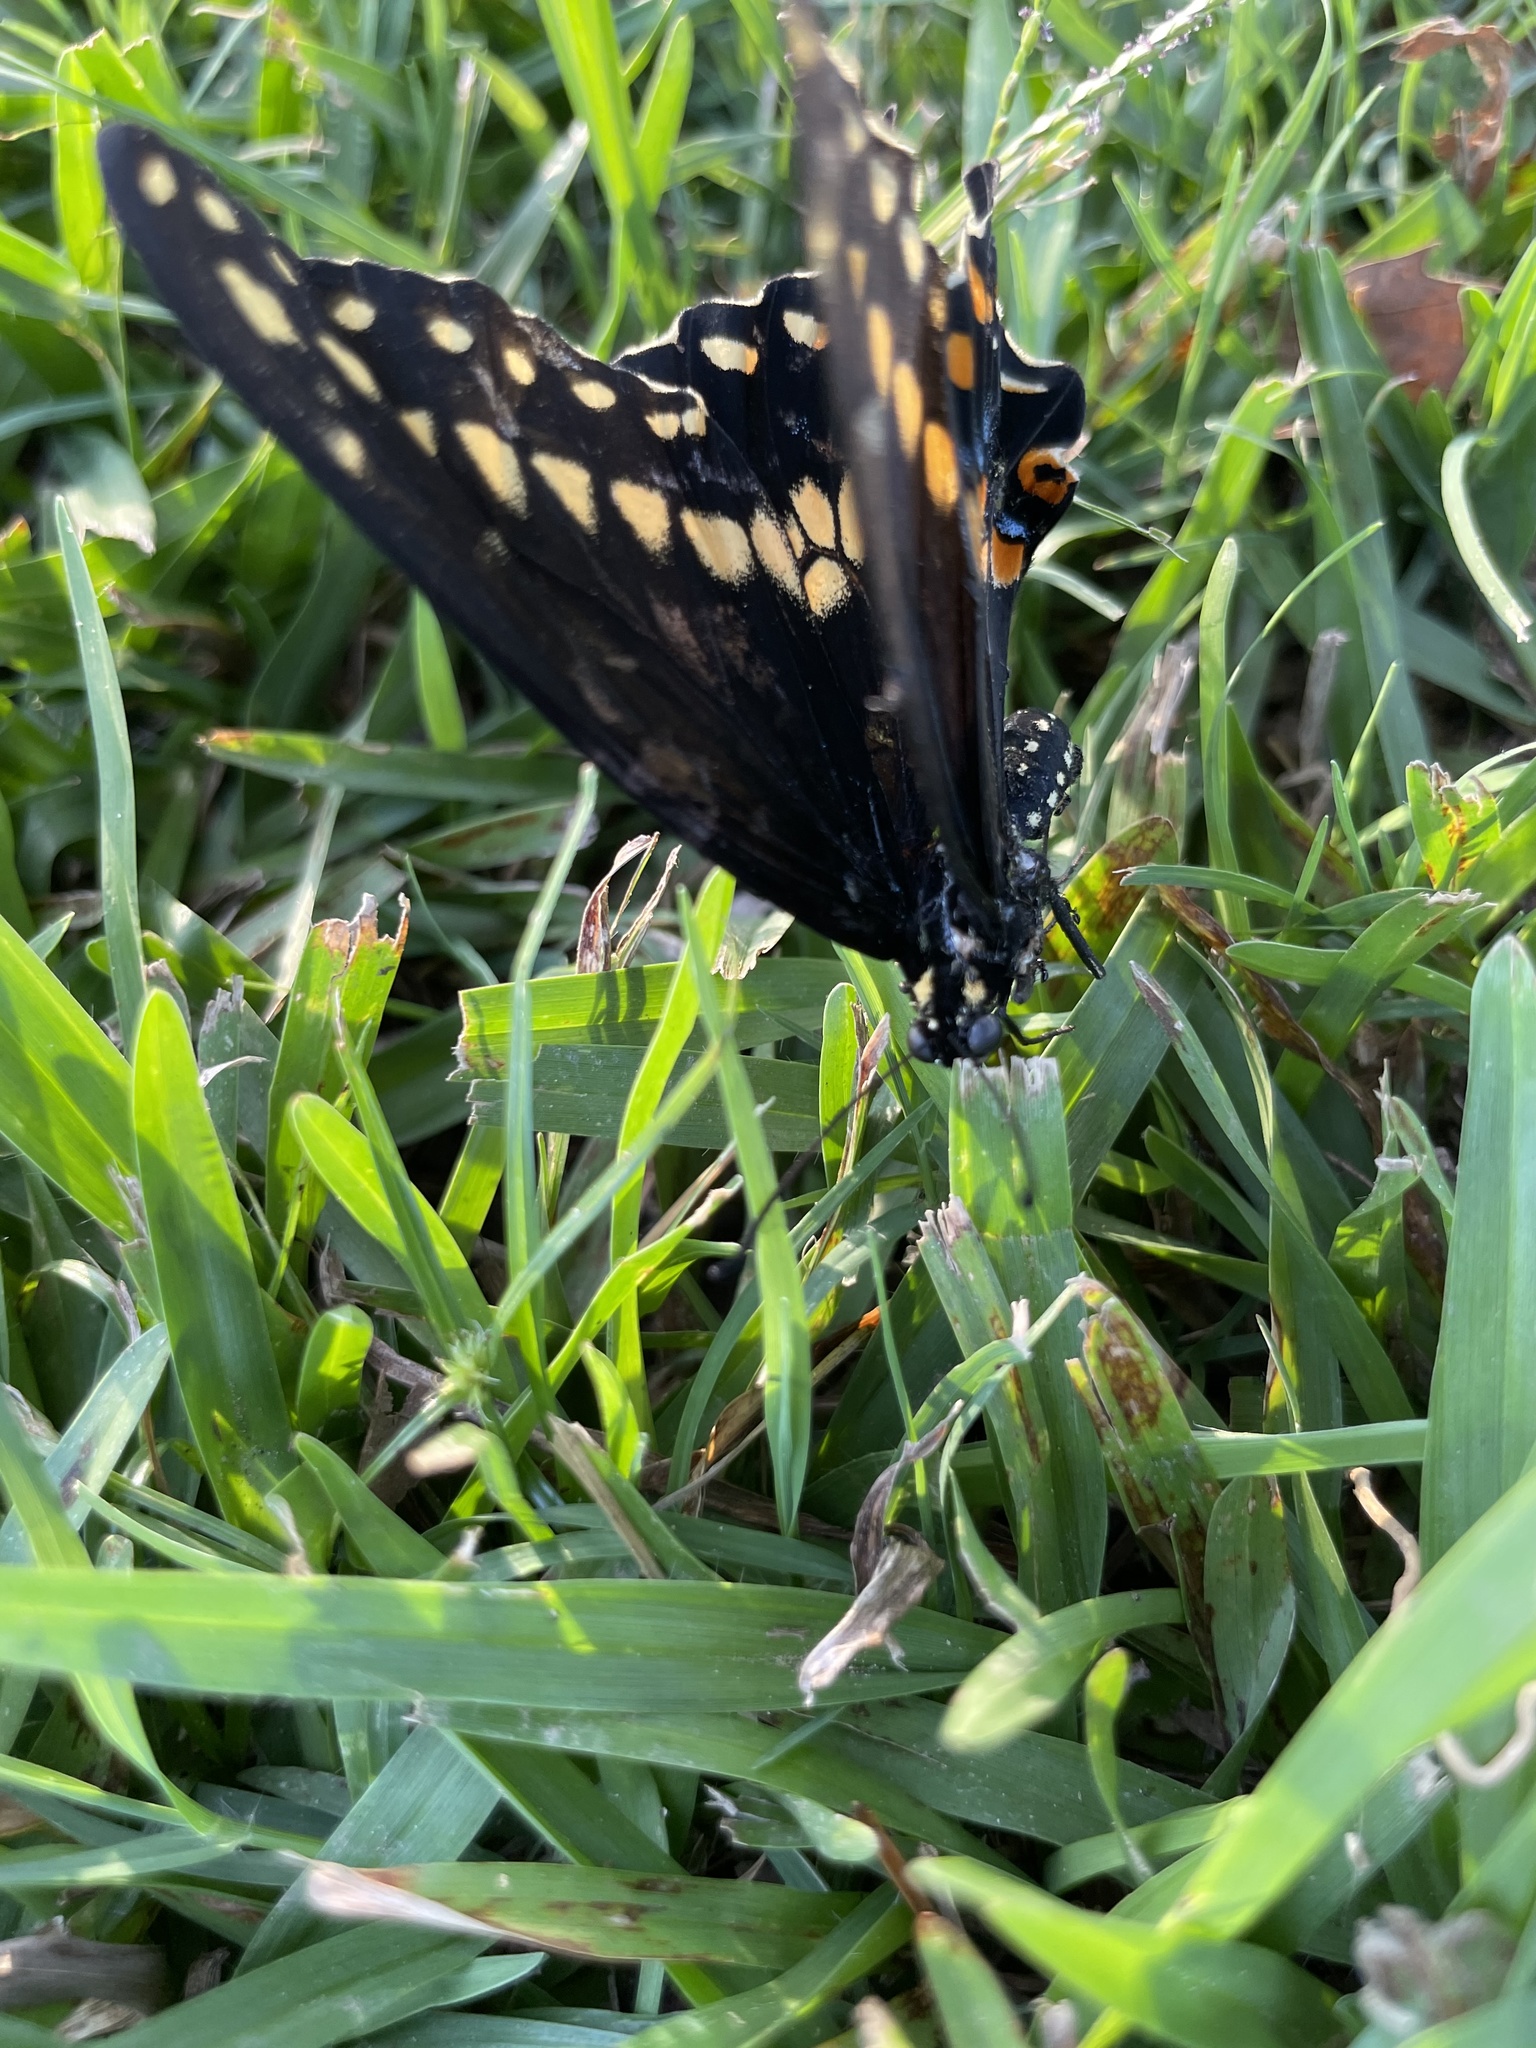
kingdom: Animalia
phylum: Arthropoda
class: Insecta
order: Lepidoptera
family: Papilionidae
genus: Papilio
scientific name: Papilio polyxenes
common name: Black swallowtail
